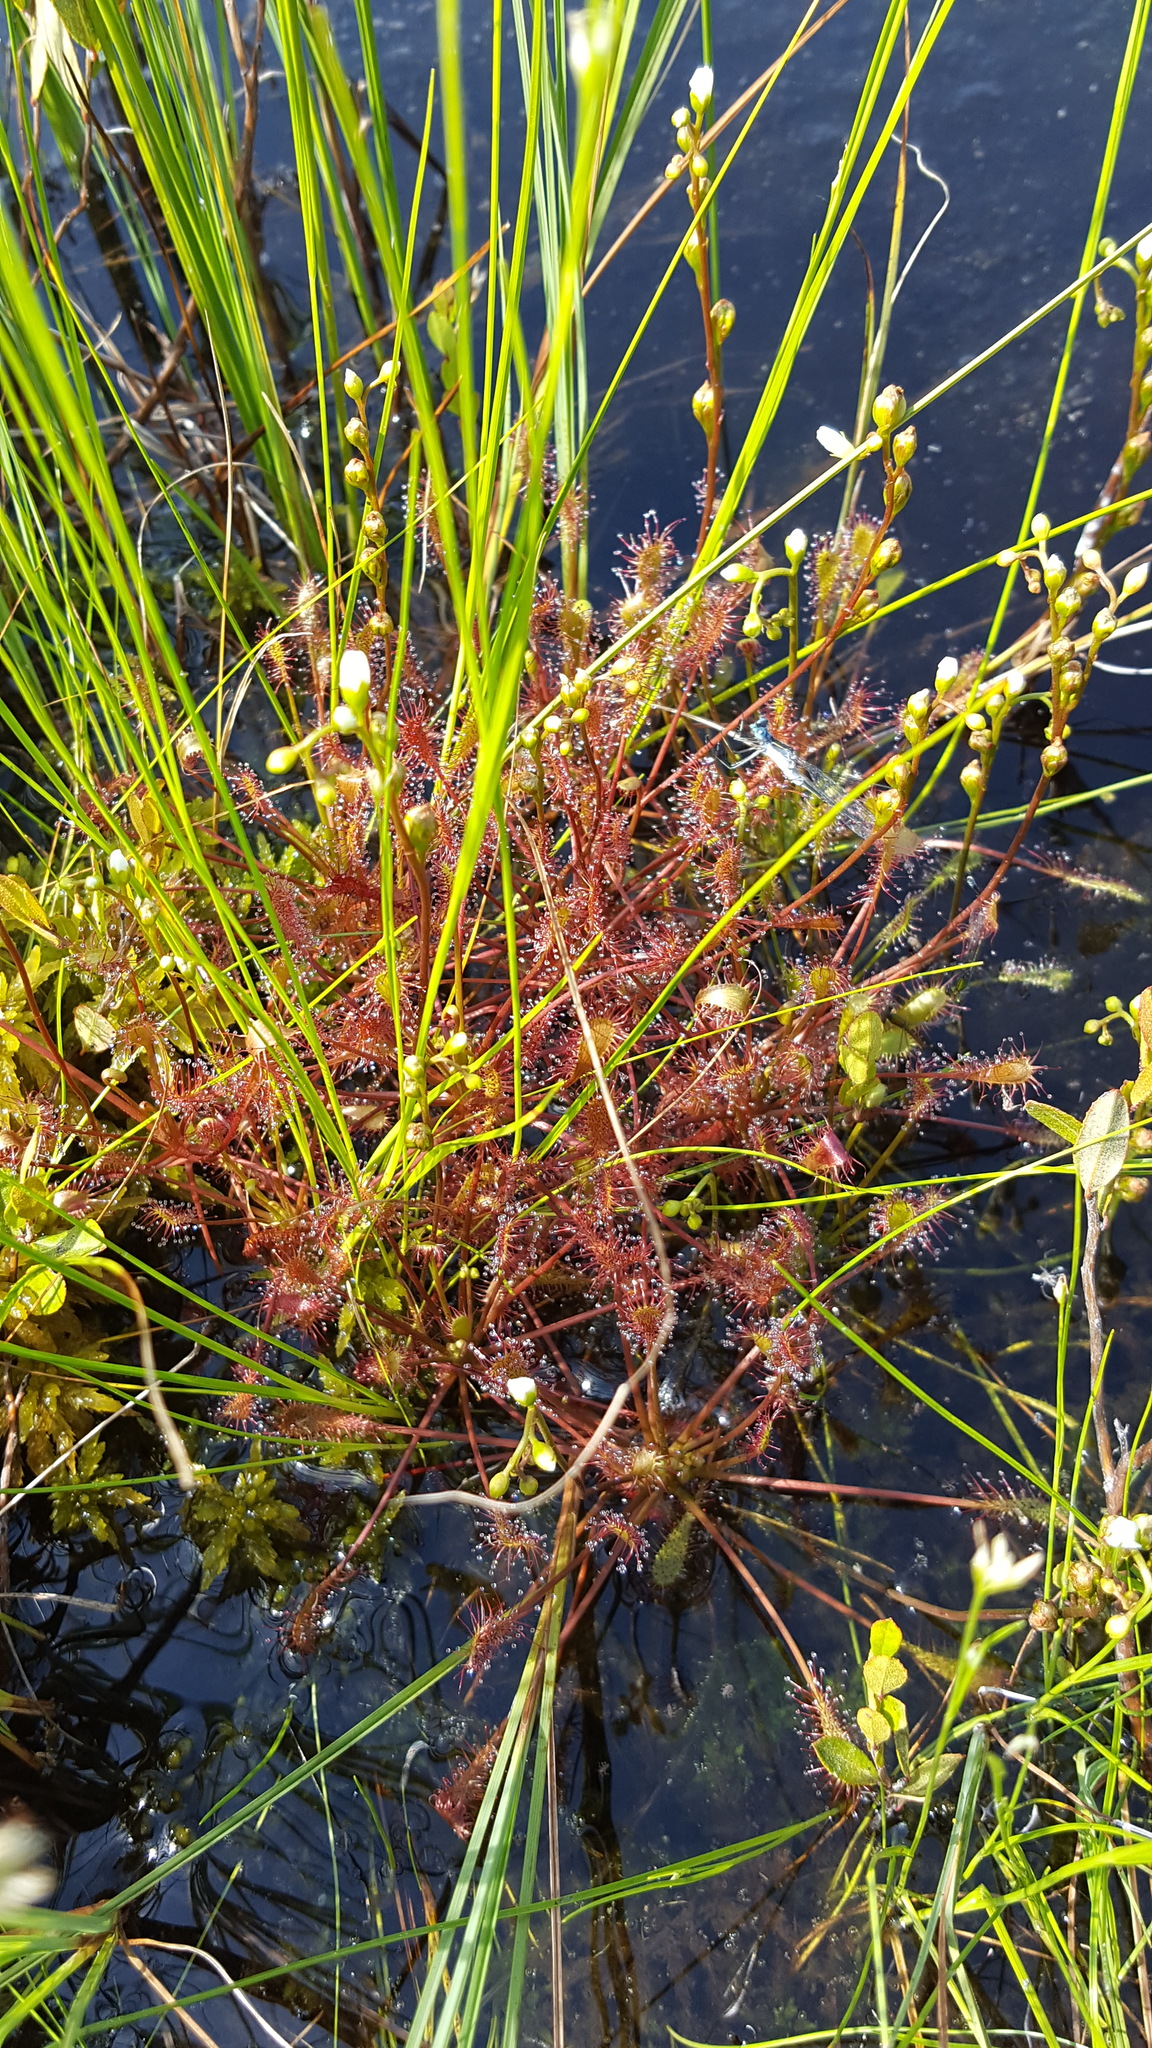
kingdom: Plantae
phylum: Tracheophyta
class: Magnoliopsida
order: Caryophyllales
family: Droseraceae
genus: Drosera
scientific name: Drosera intermedia
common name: Oblong-leaved sundew
